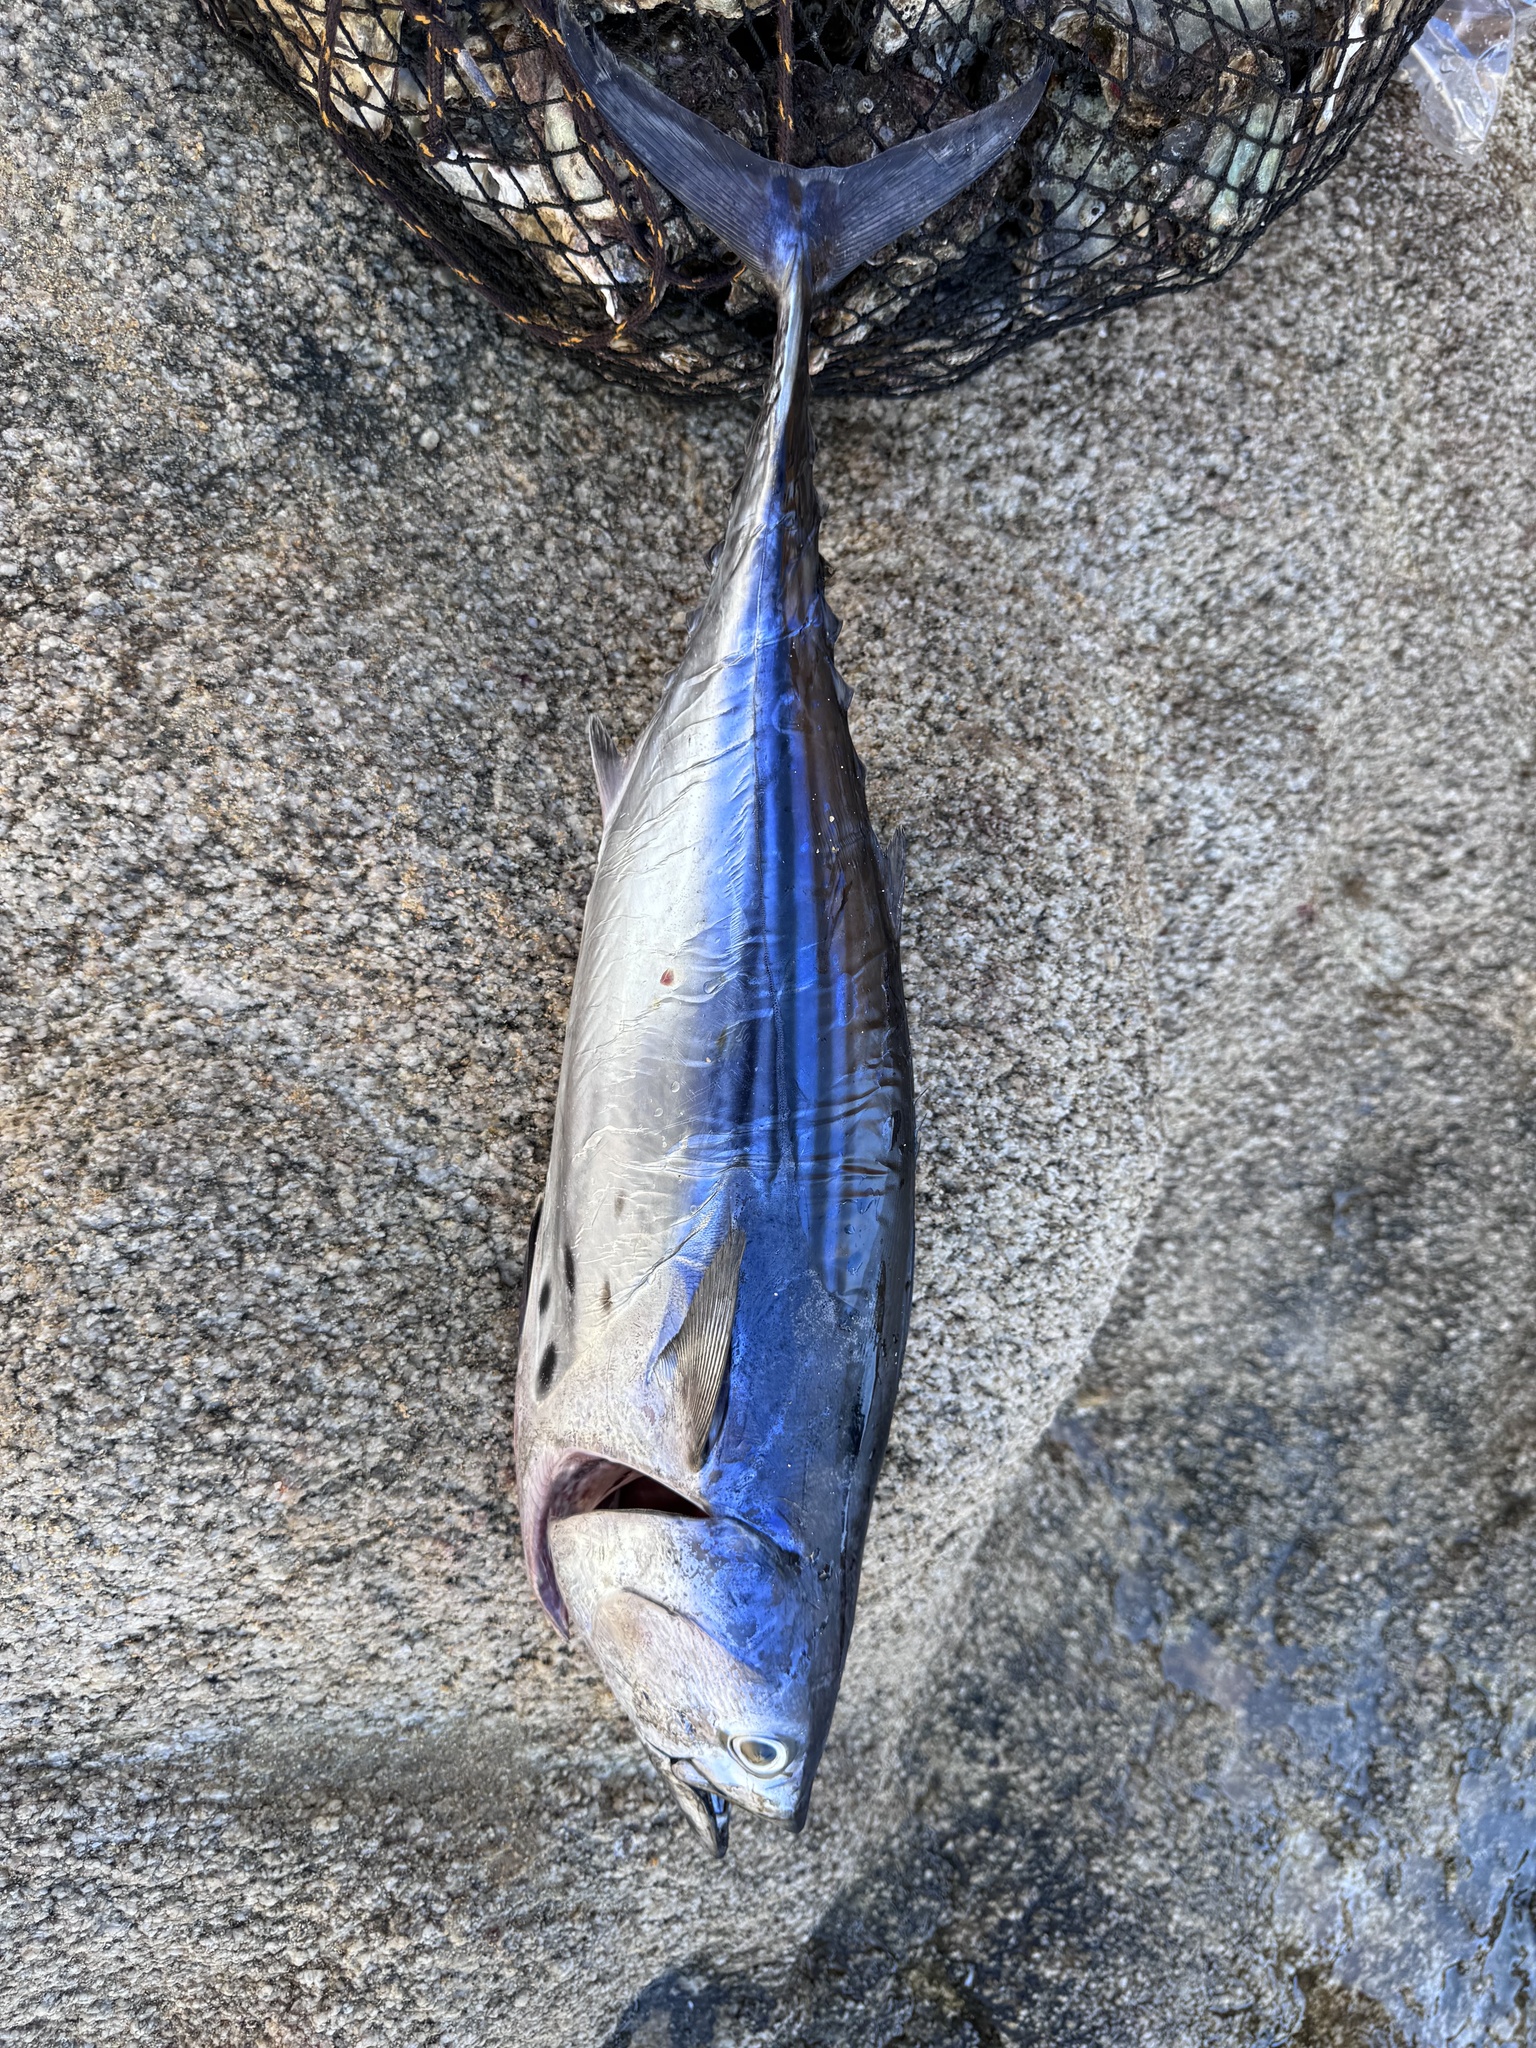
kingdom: Animalia
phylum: Chordata
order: Perciformes
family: Scombridae
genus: Euthynnus
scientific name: Euthynnus lineatus
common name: Black skipjack
